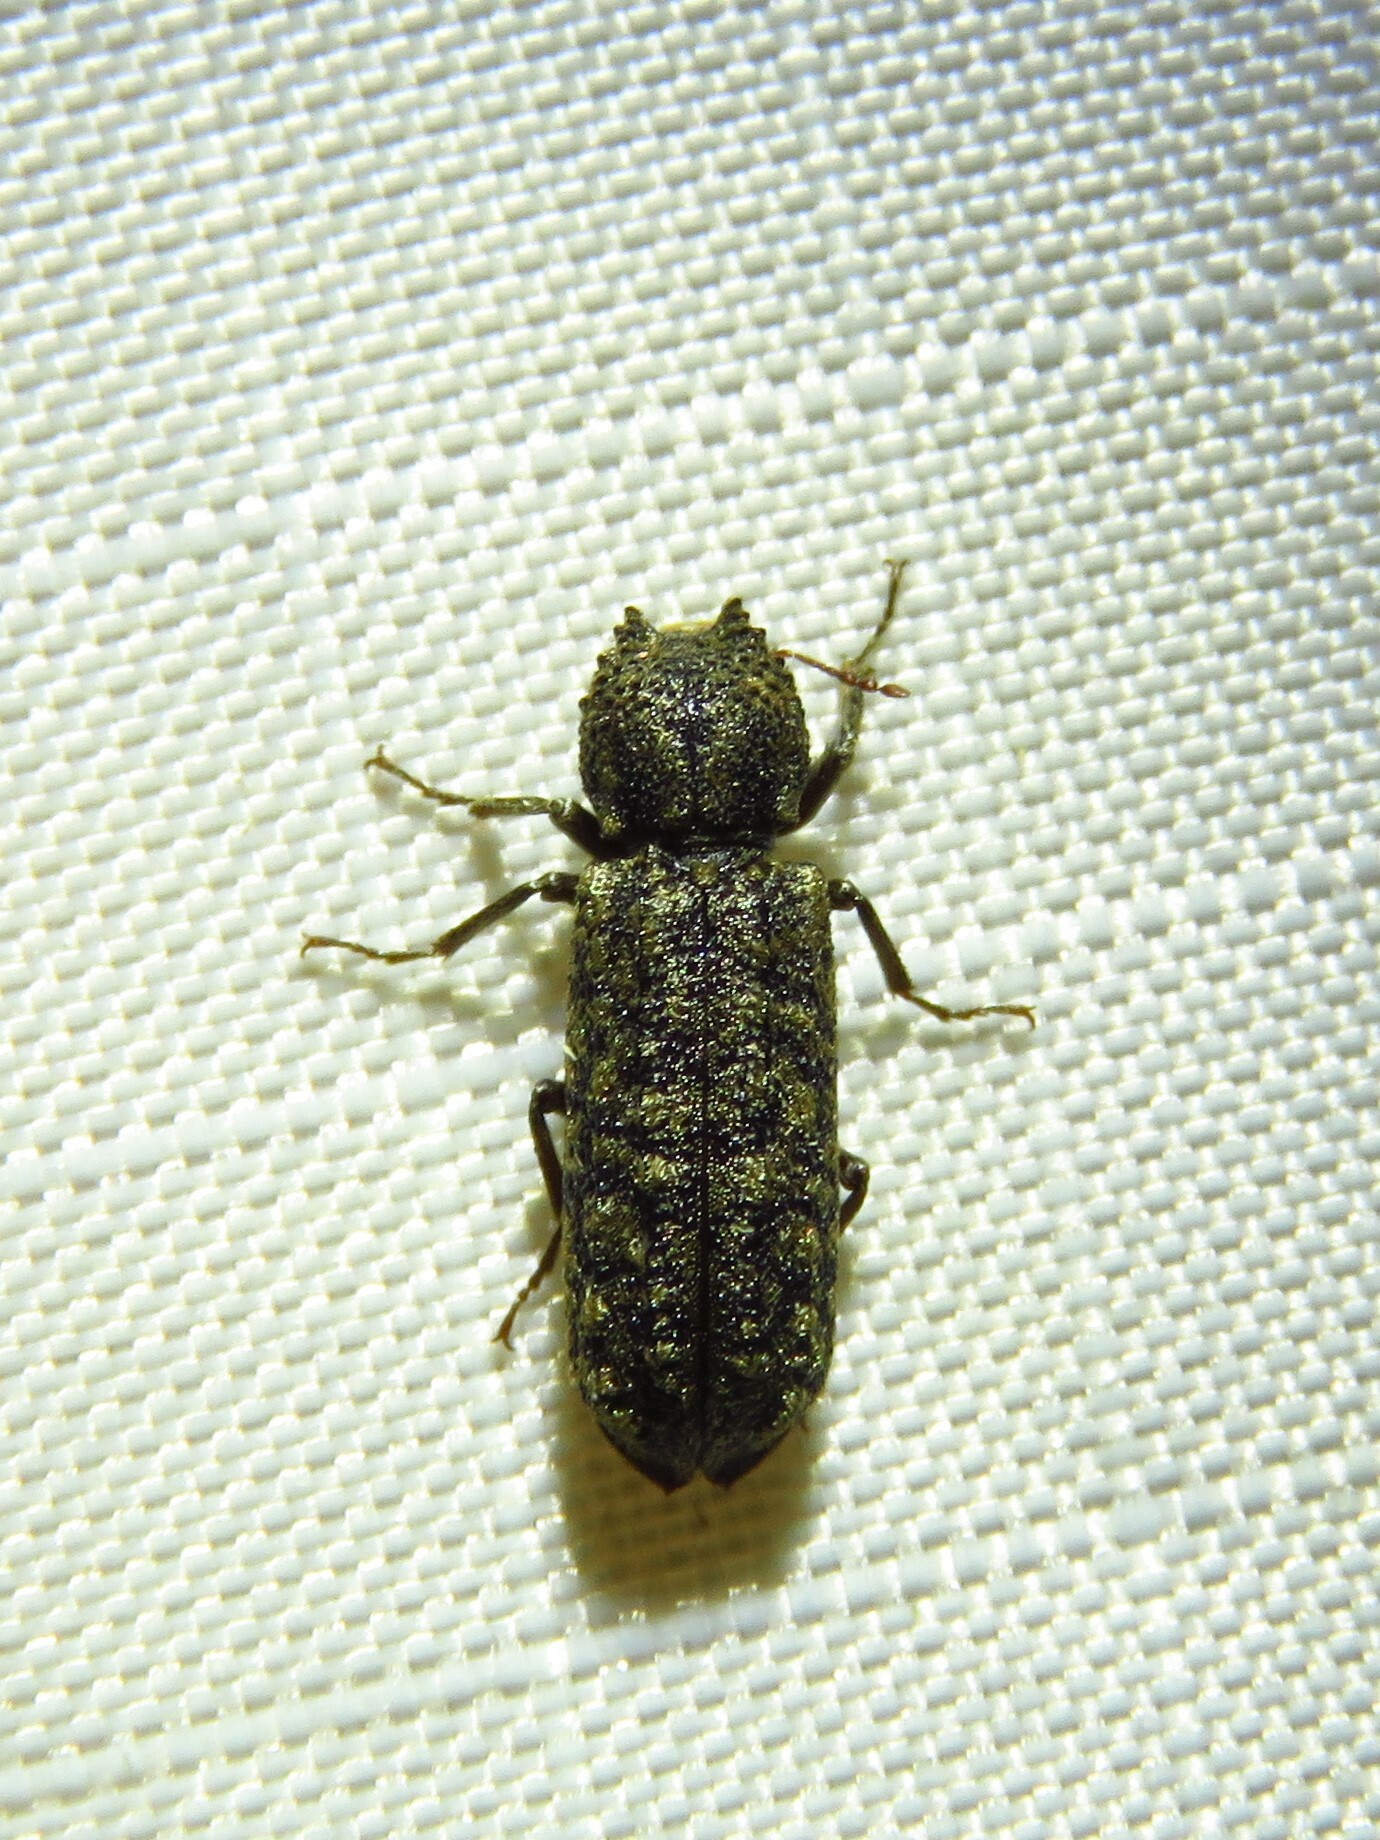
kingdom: Animalia
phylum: Arthropoda
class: Insecta
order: Coleoptera
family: Bostrichidae
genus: Lichenophanes
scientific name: Lichenophanes bicornis
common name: Two-horned powder-post beetle
